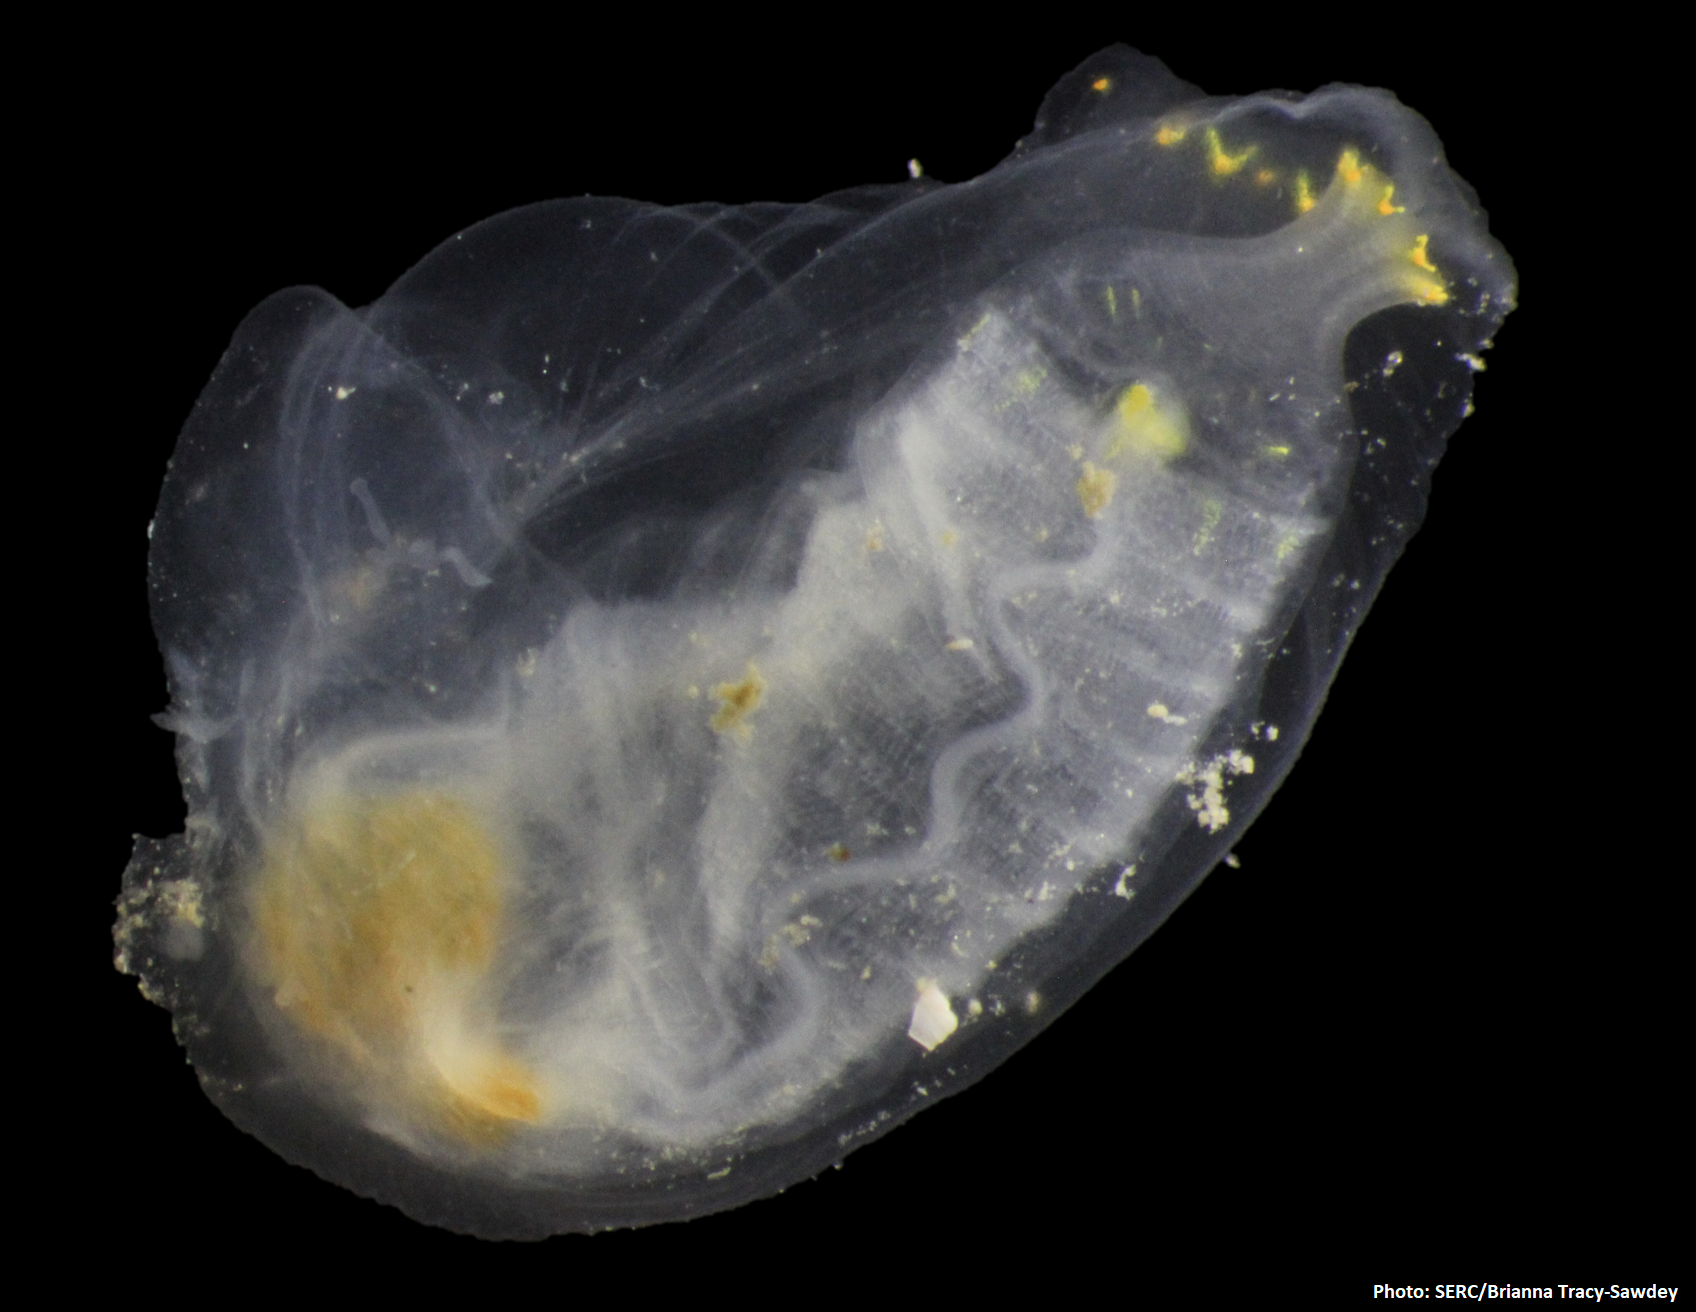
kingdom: Animalia
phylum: Chordata
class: Ascidiacea
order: Phlebobranchia
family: Cionidae
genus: Ciona
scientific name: Ciona savignyi
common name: Tunicate
